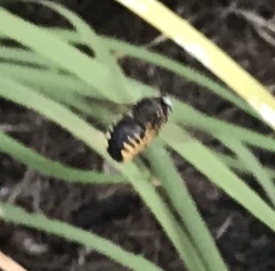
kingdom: Animalia
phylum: Arthropoda
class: Insecta
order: Hymenoptera
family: Apidae
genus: Xylocopa
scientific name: Xylocopa tabaniformis
